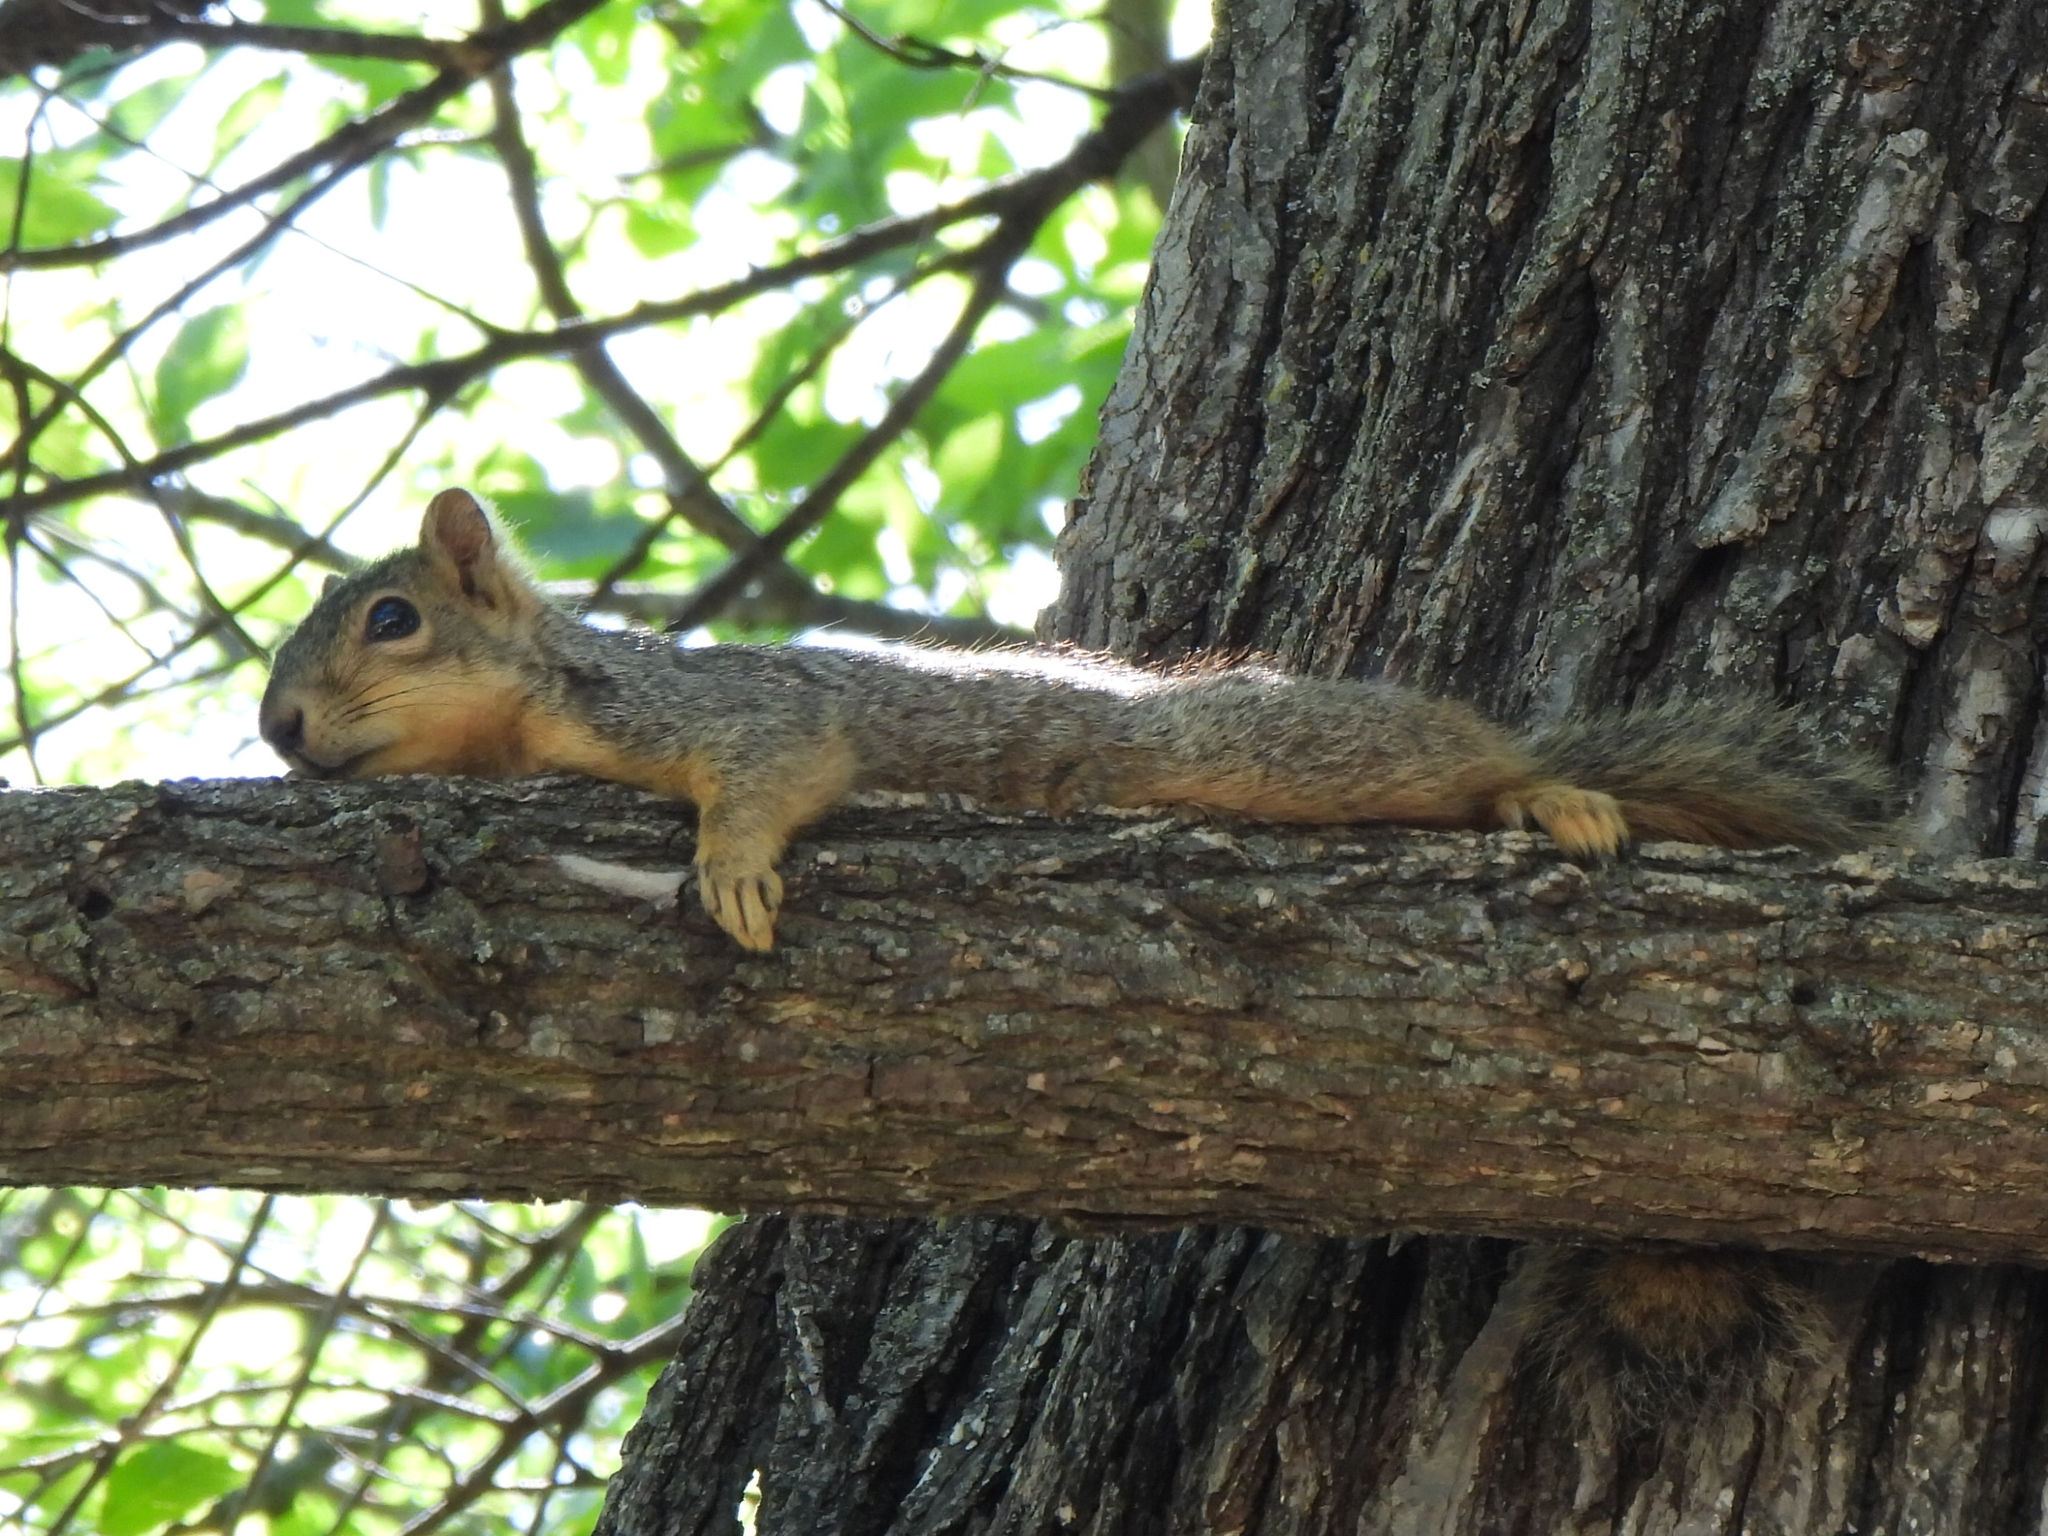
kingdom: Animalia
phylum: Chordata
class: Mammalia
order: Rodentia
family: Sciuridae
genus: Sciurus
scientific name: Sciurus niger
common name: Fox squirrel
